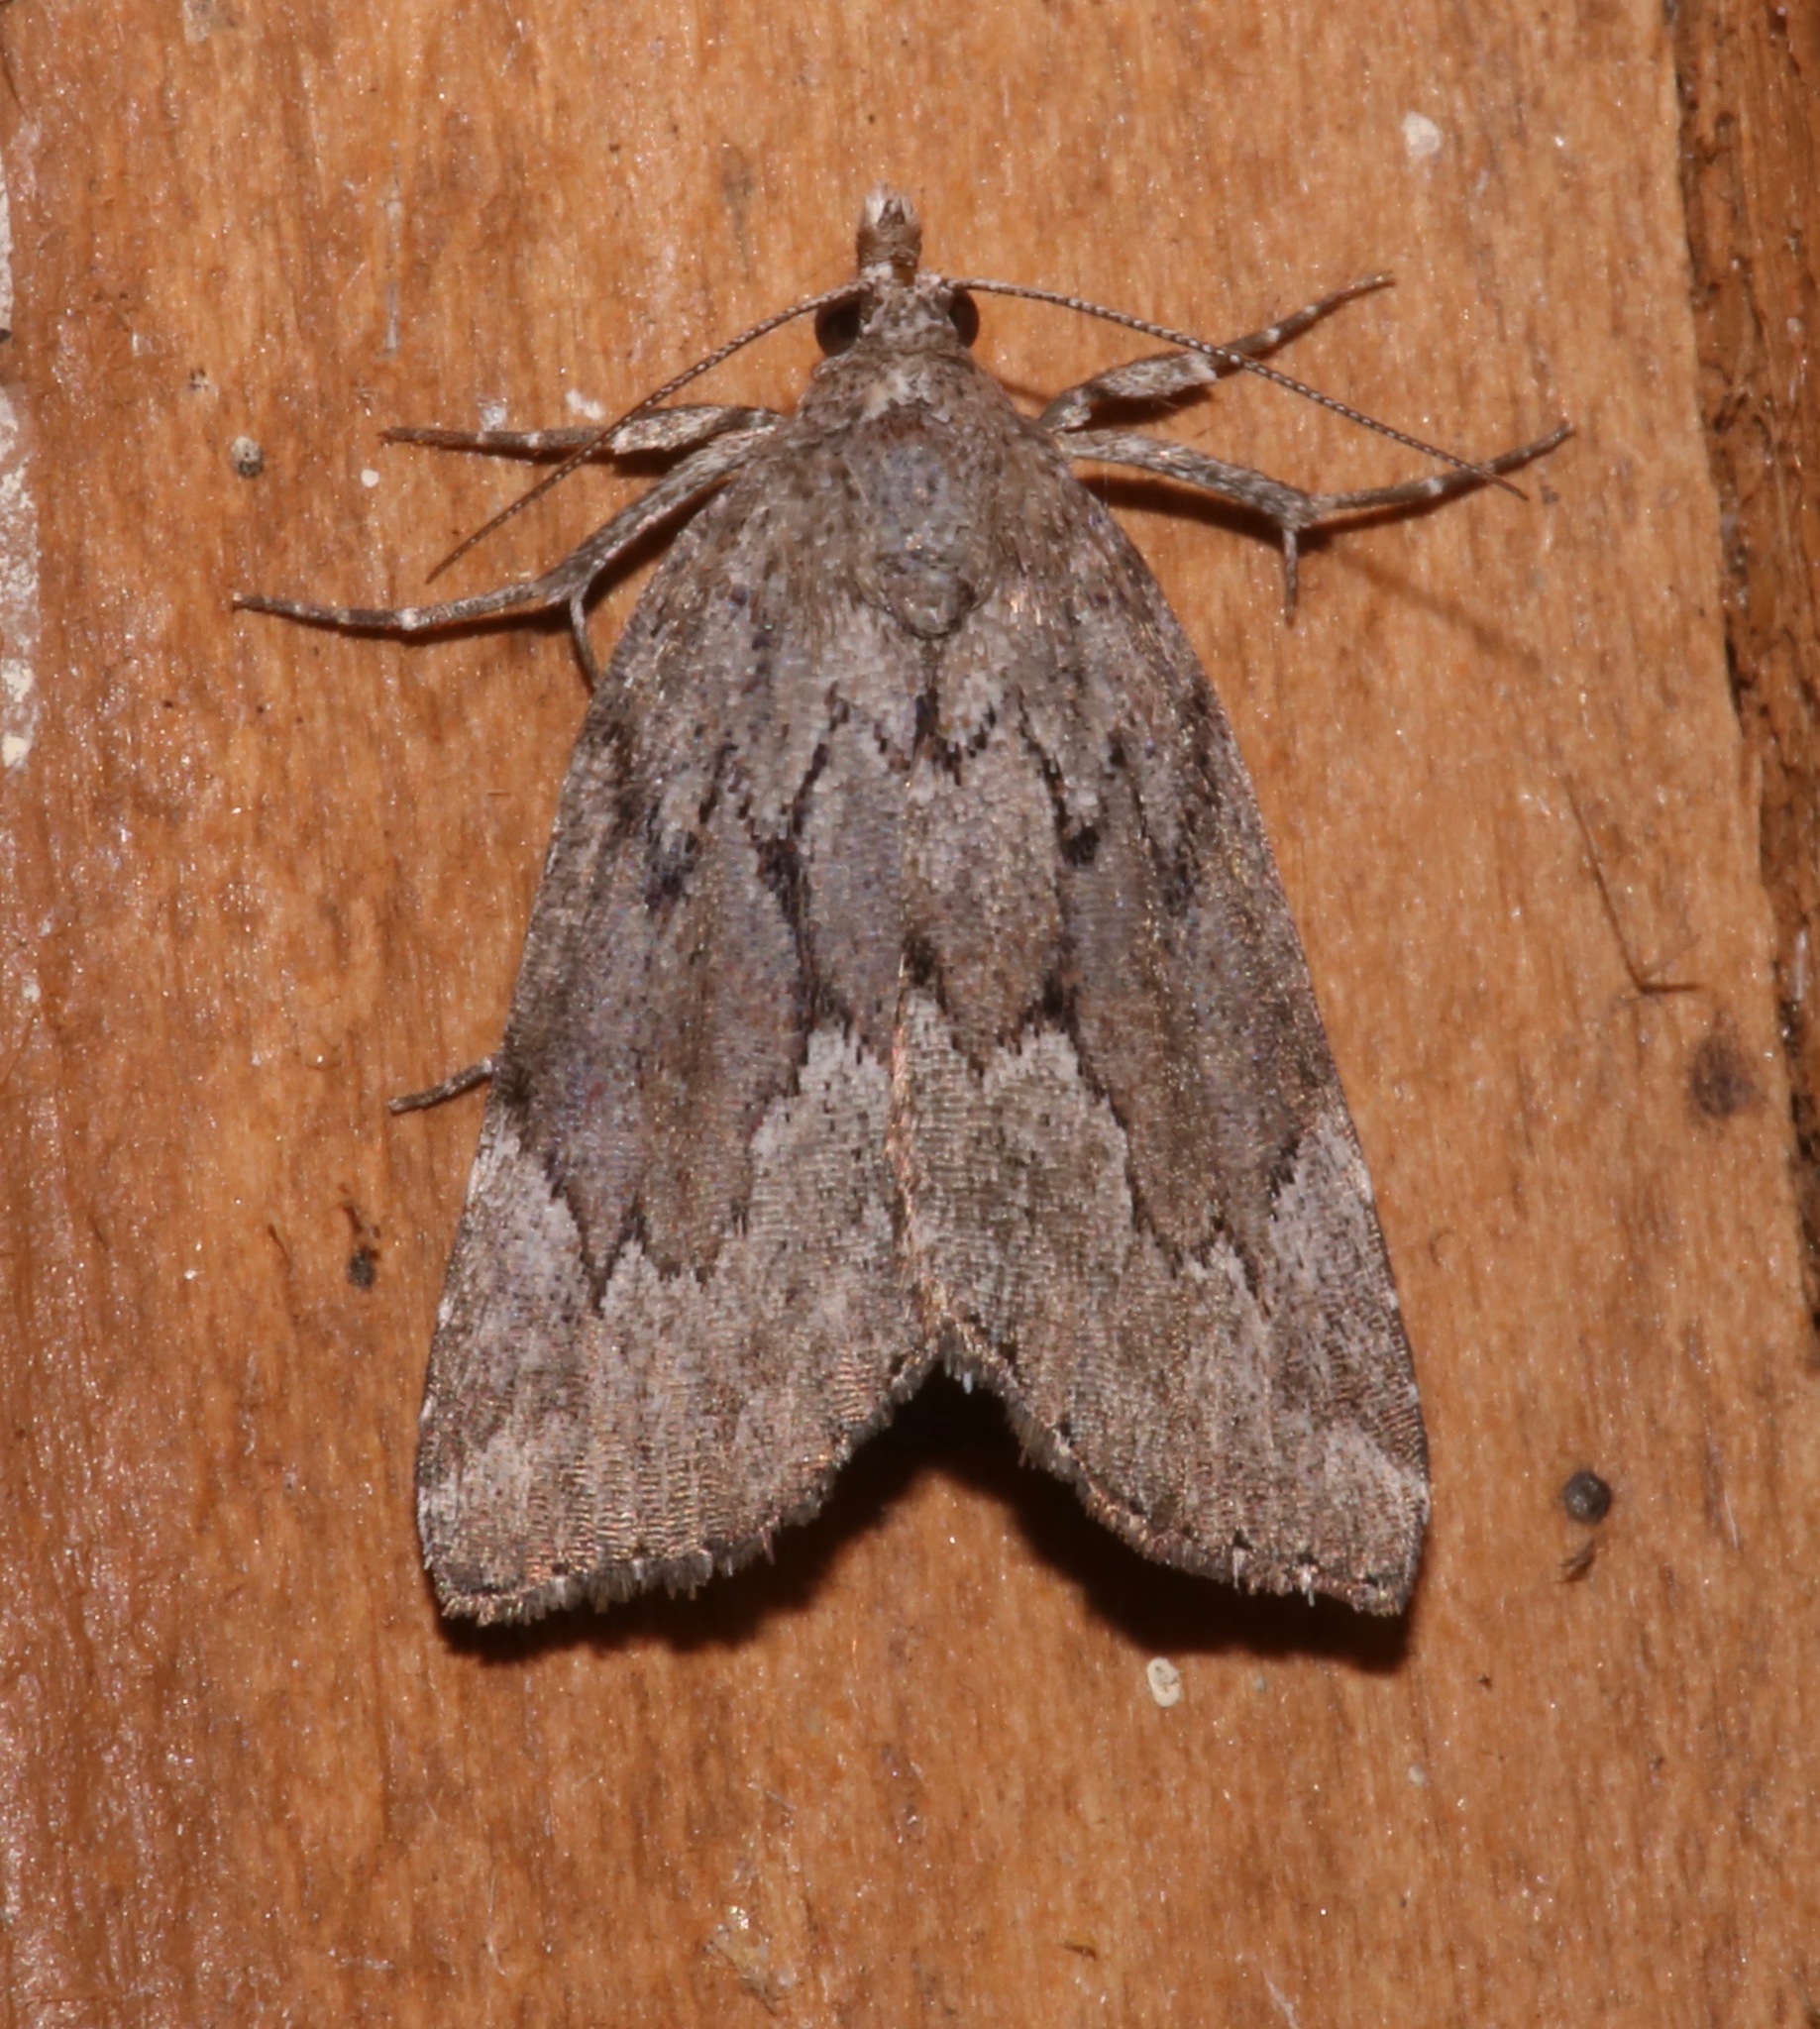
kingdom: Animalia
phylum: Arthropoda
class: Insecta
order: Lepidoptera
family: Erebidae
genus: Cutina
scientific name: Cutina albopunctella
